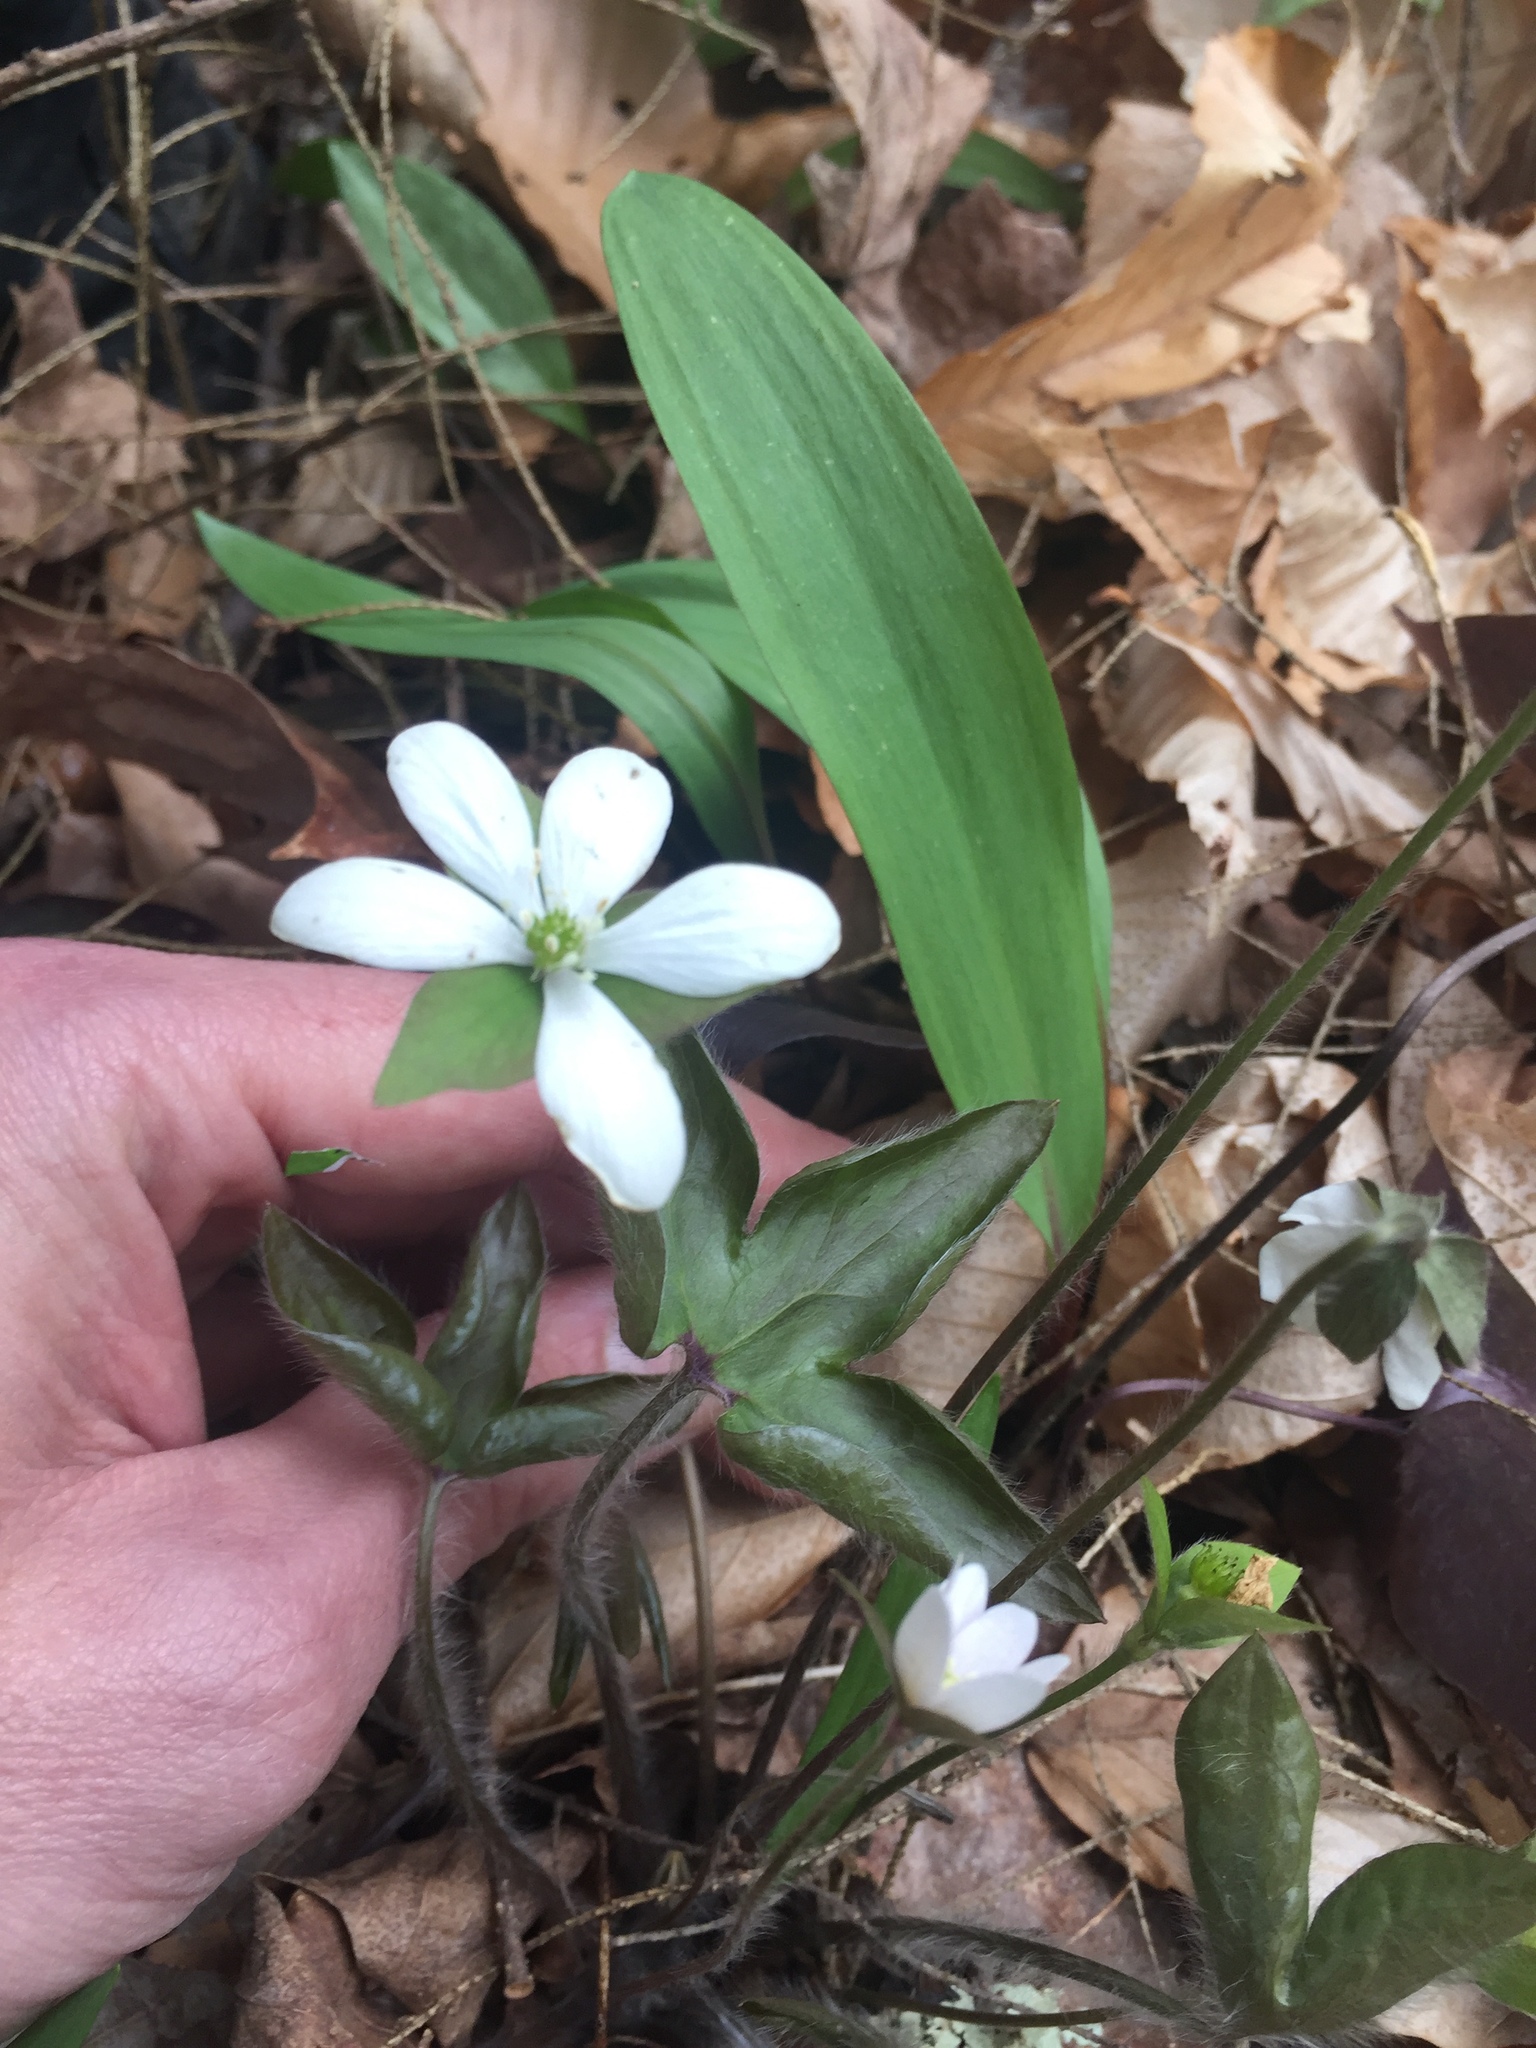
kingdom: Plantae
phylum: Tracheophyta
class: Magnoliopsida
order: Ranunculales
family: Ranunculaceae
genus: Hepatica
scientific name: Hepatica acutiloba
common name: Sharp-lobed hepatica
